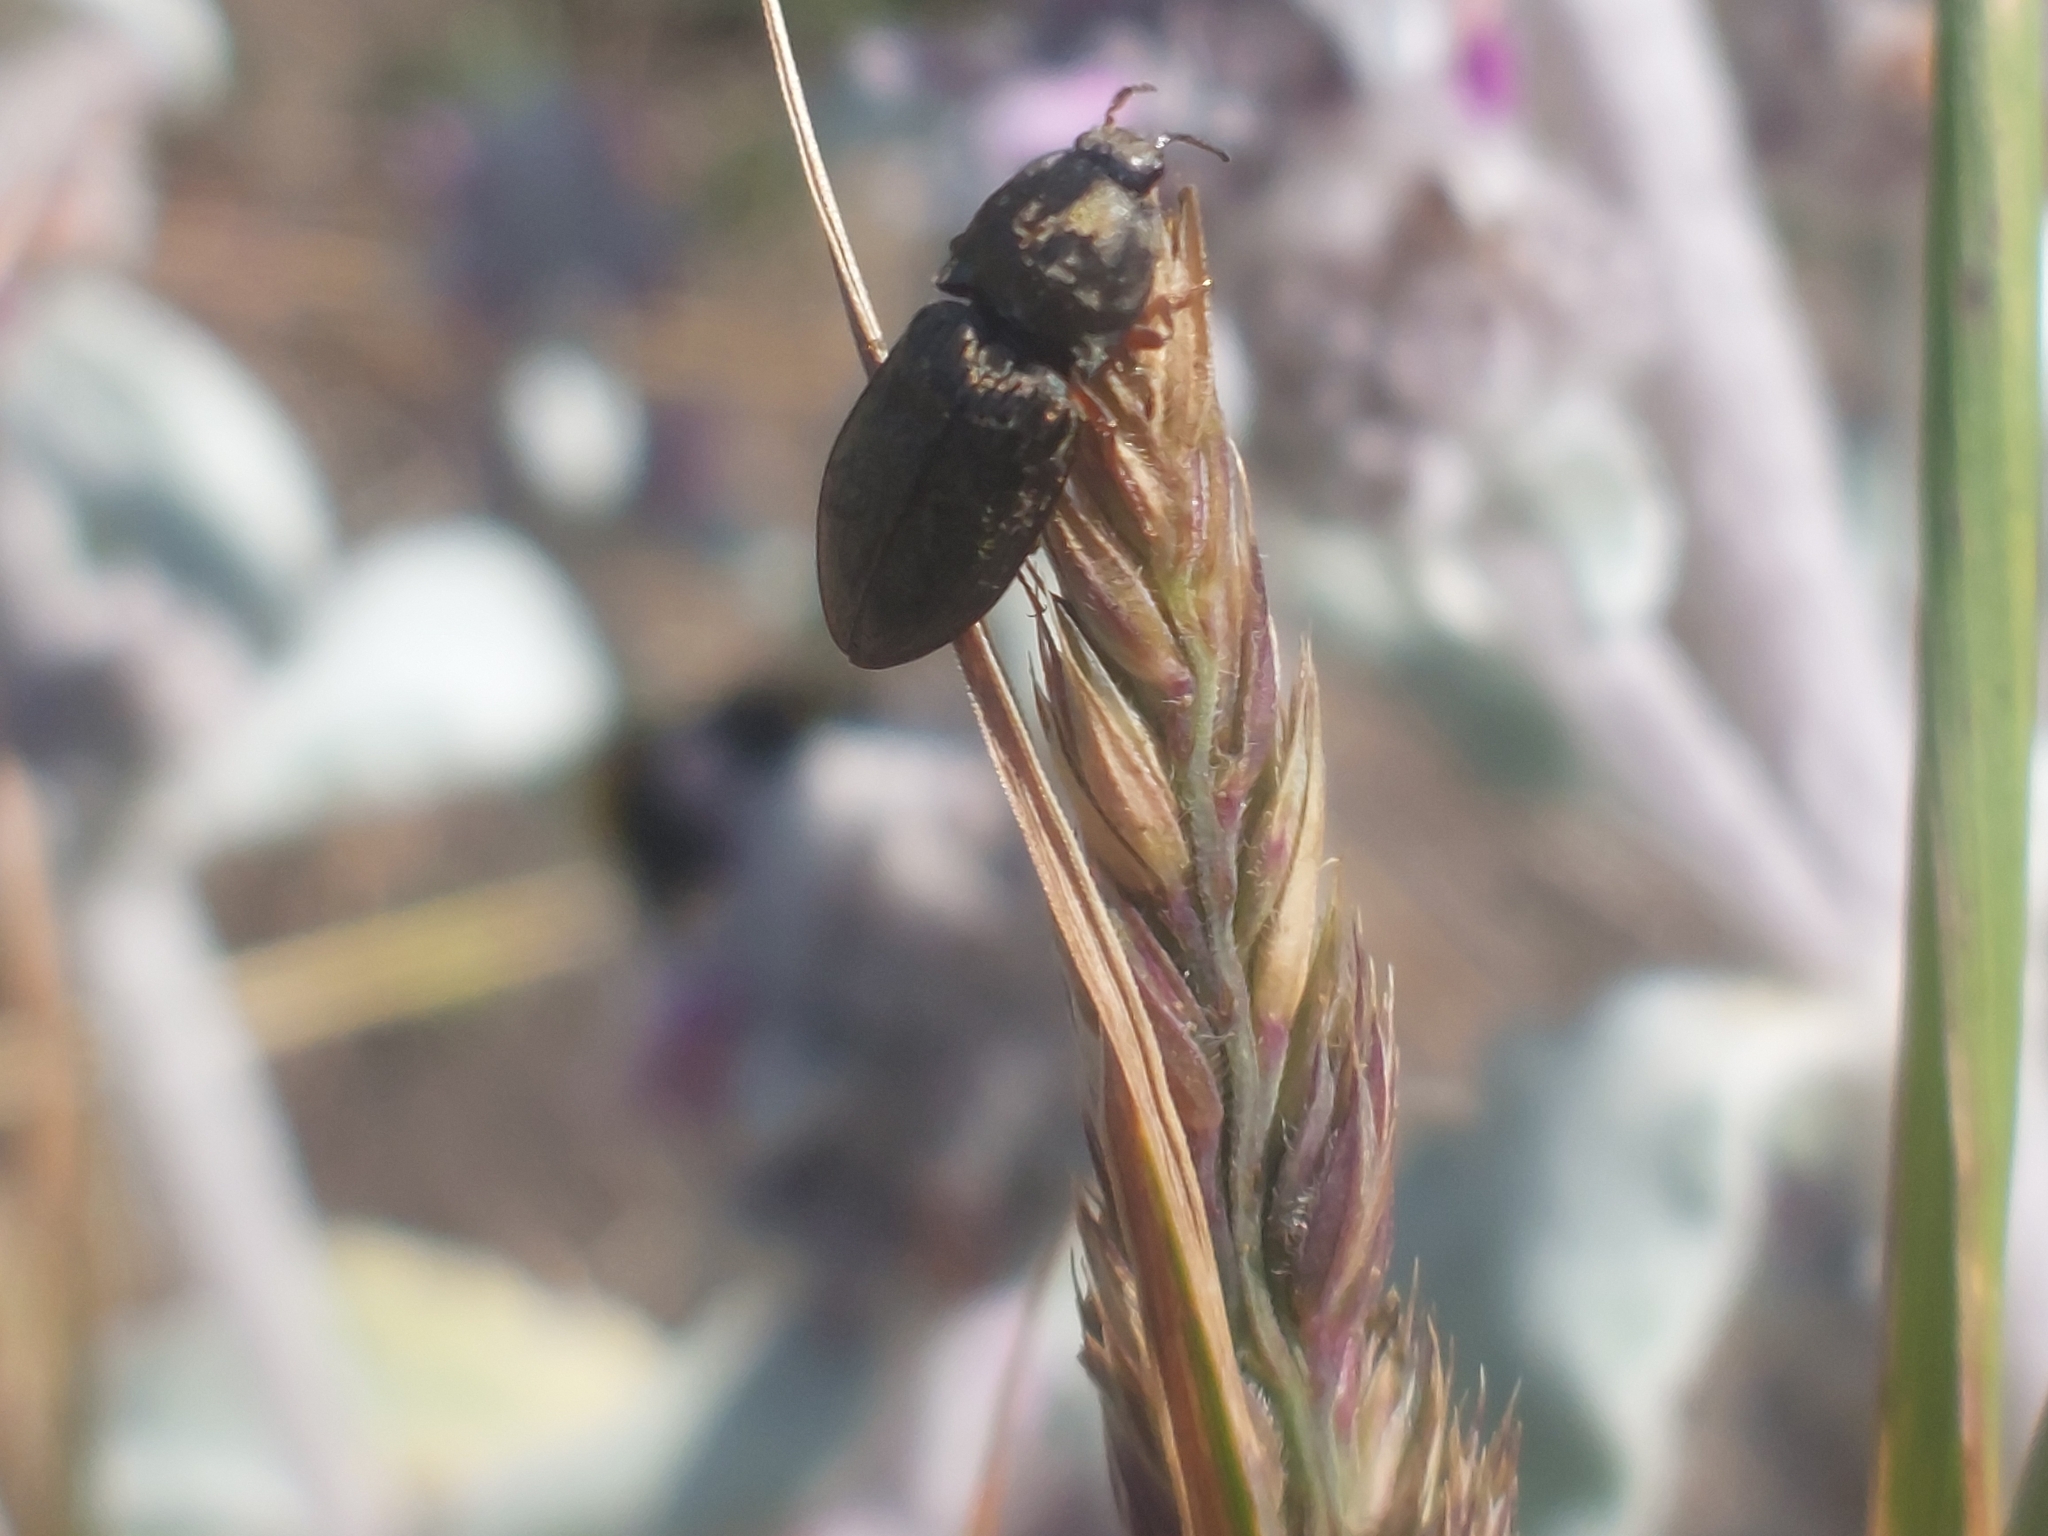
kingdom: Animalia
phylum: Arthropoda
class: Insecta
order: Coleoptera
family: Elateridae
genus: Prosternon
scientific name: Prosternon tessellatum
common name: Chequered click beetle
